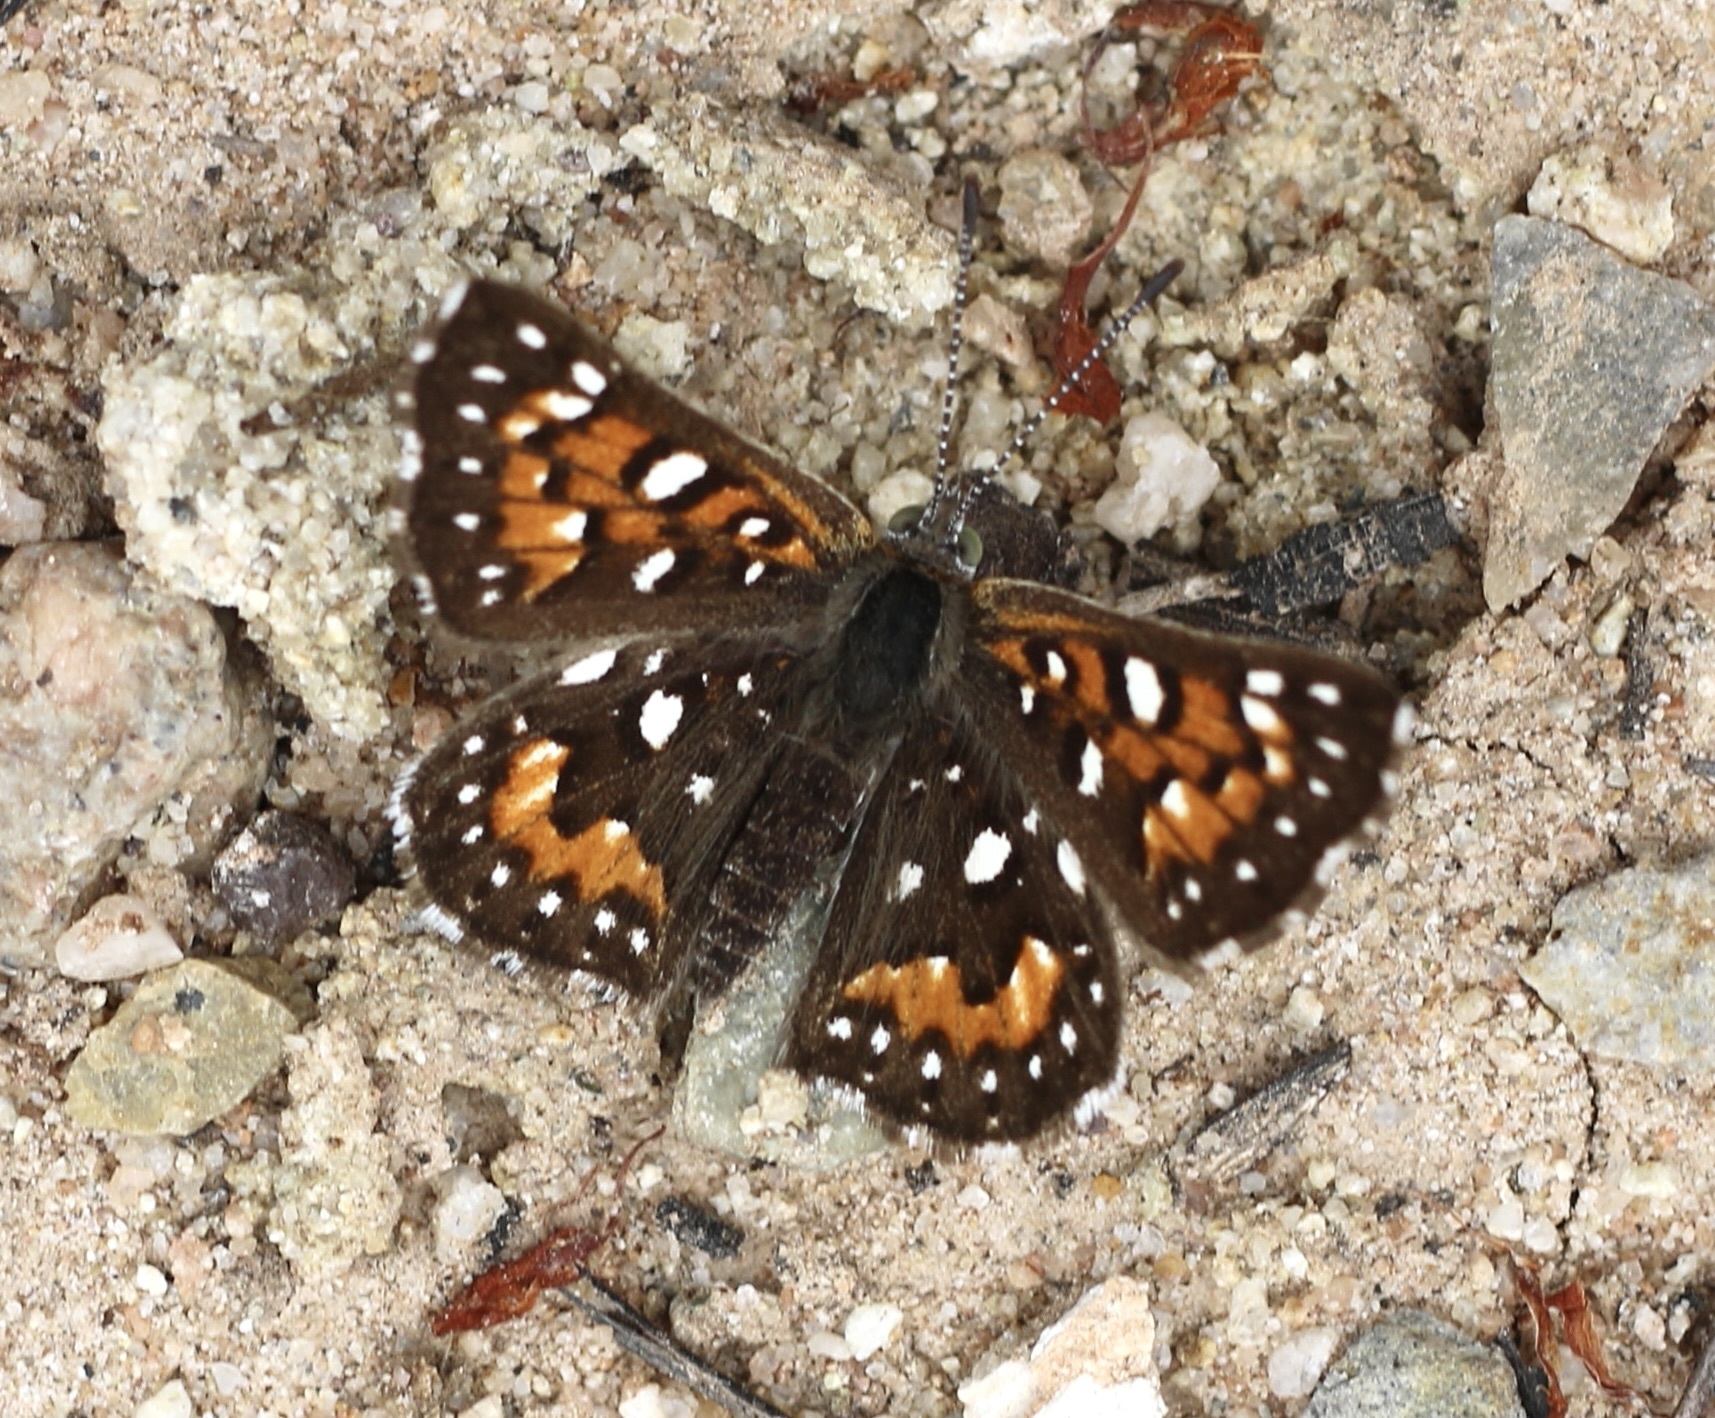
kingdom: Animalia
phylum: Arthropoda
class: Insecta
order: Lepidoptera
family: Riodinidae
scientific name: Riodinidae
